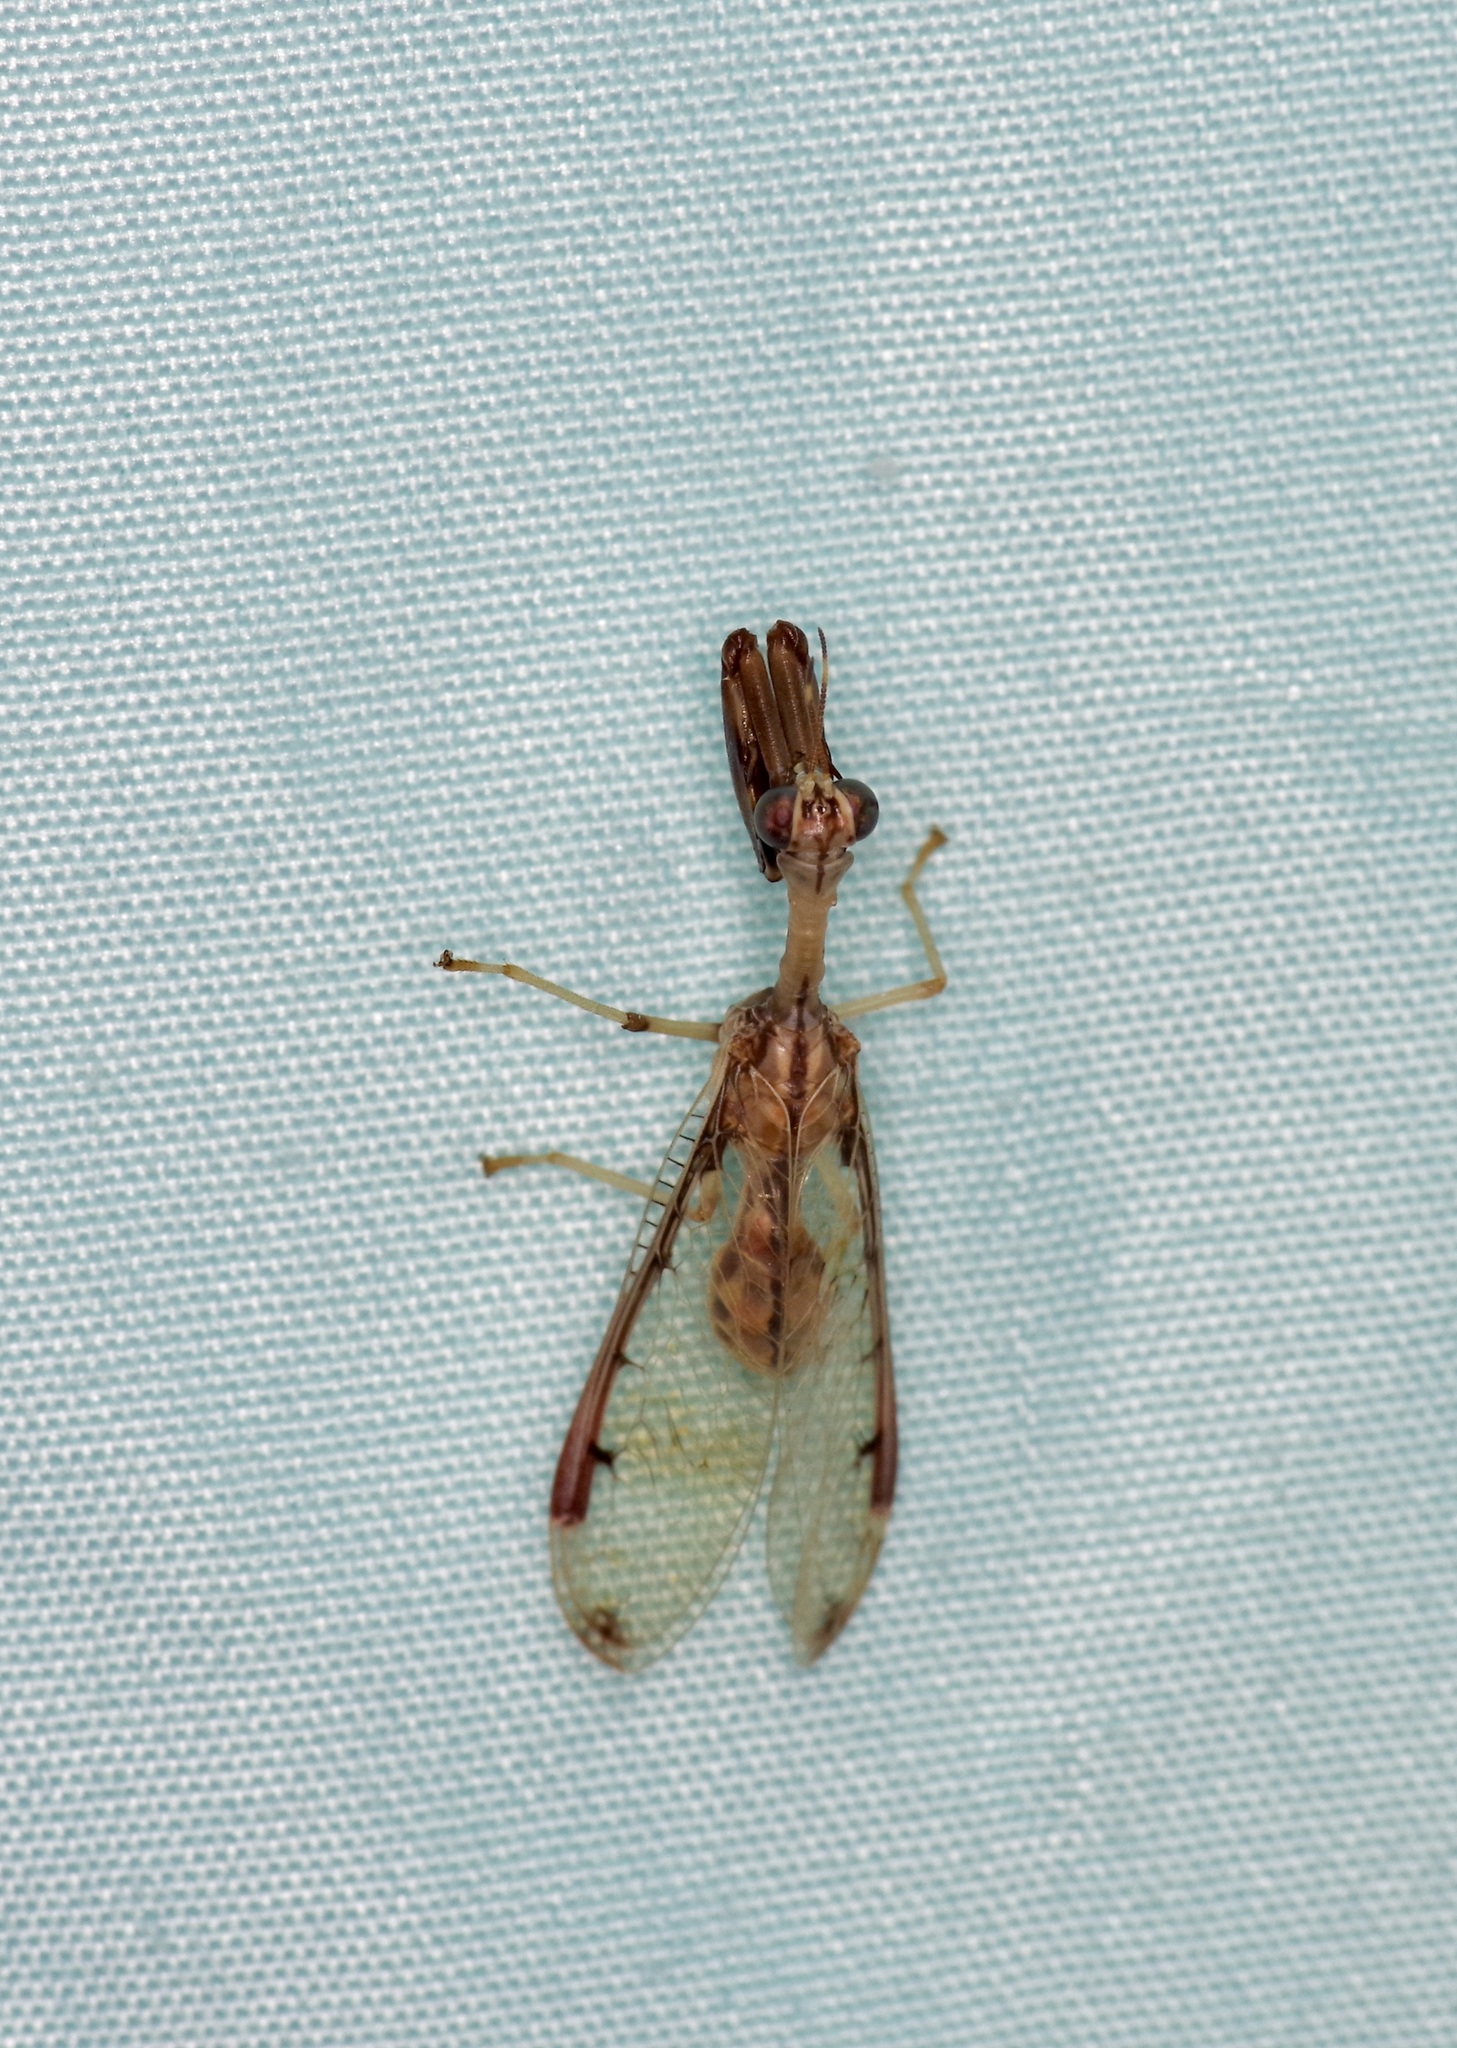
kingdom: Animalia
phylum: Arthropoda
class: Insecta
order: Neuroptera
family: Mantispidae
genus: Dicromantispa
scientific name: Dicromantispa interrupta
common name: Four-spotted mantidfly
